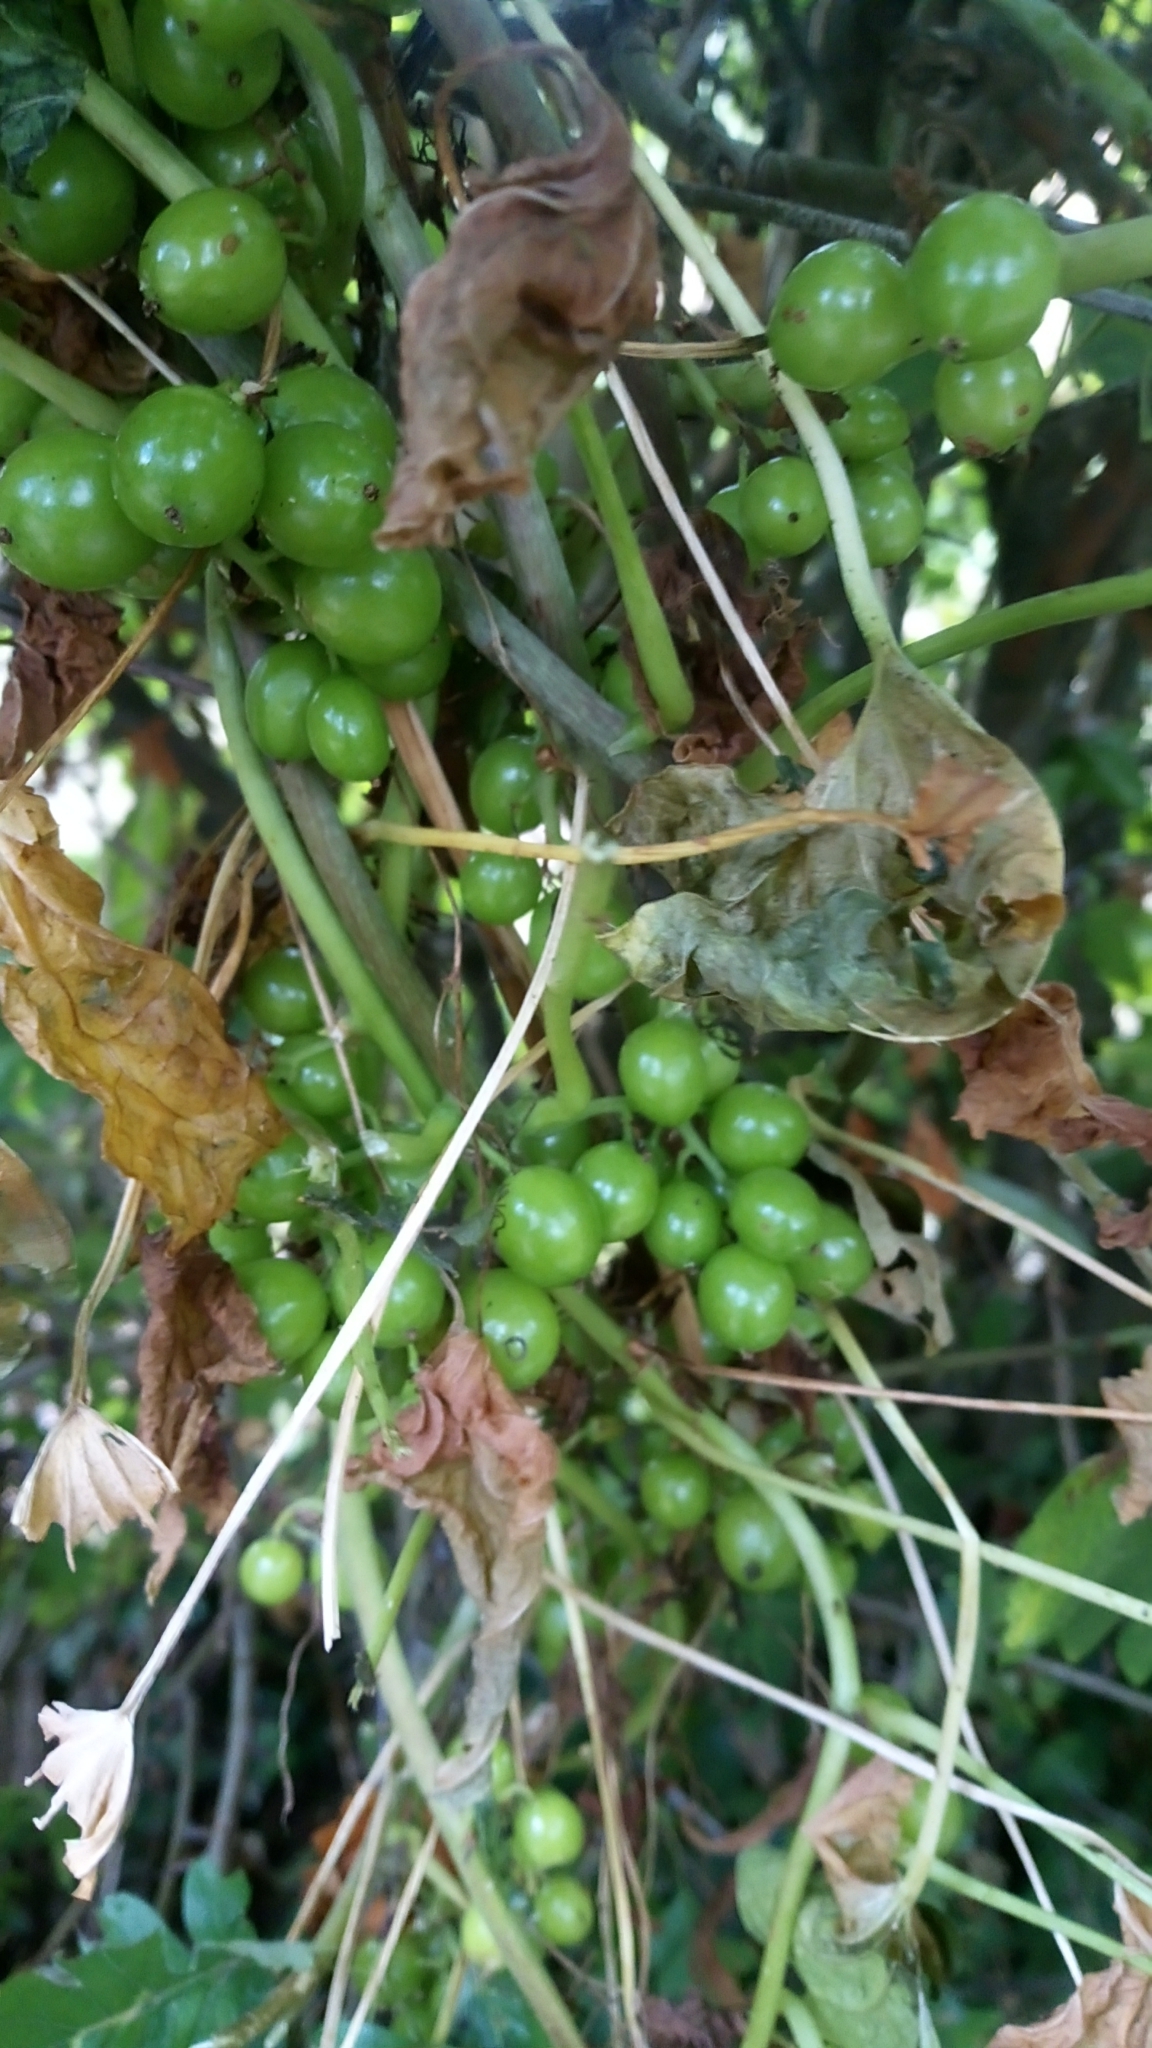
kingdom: Plantae
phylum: Tracheophyta
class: Liliopsida
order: Dioscoreales
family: Dioscoreaceae
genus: Dioscorea
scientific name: Dioscorea communis
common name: Black-bindweed
